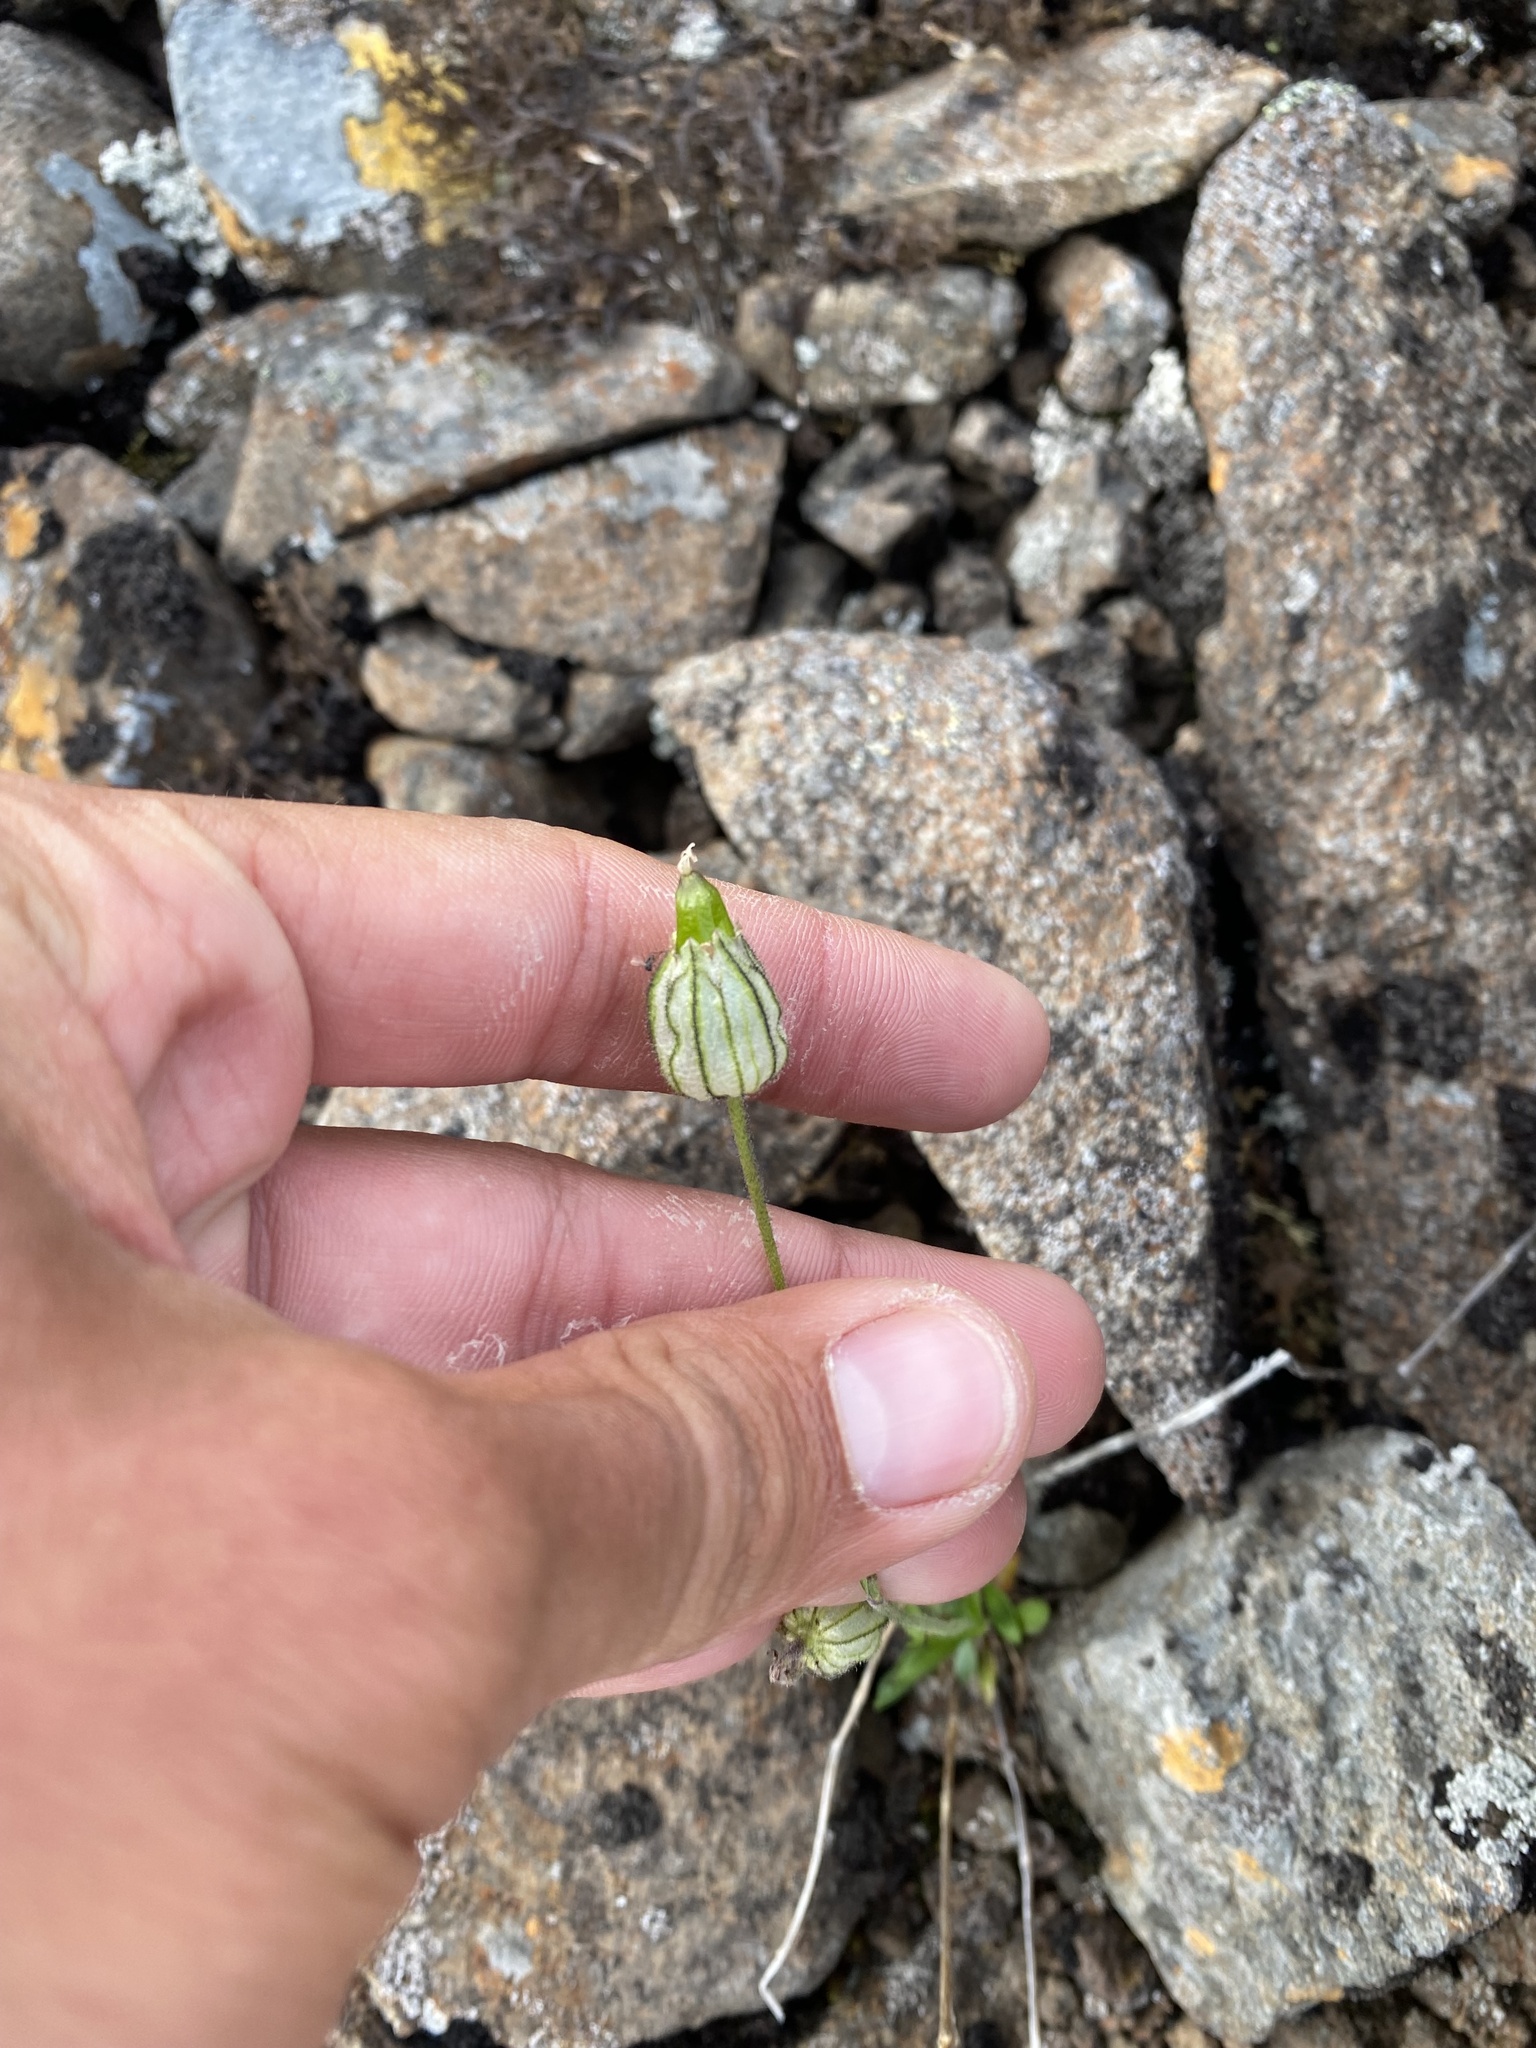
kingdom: Plantae
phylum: Tracheophyta
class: Magnoliopsida
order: Caryophyllales
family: Caryophyllaceae
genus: Silene
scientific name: Silene wahlbergella
